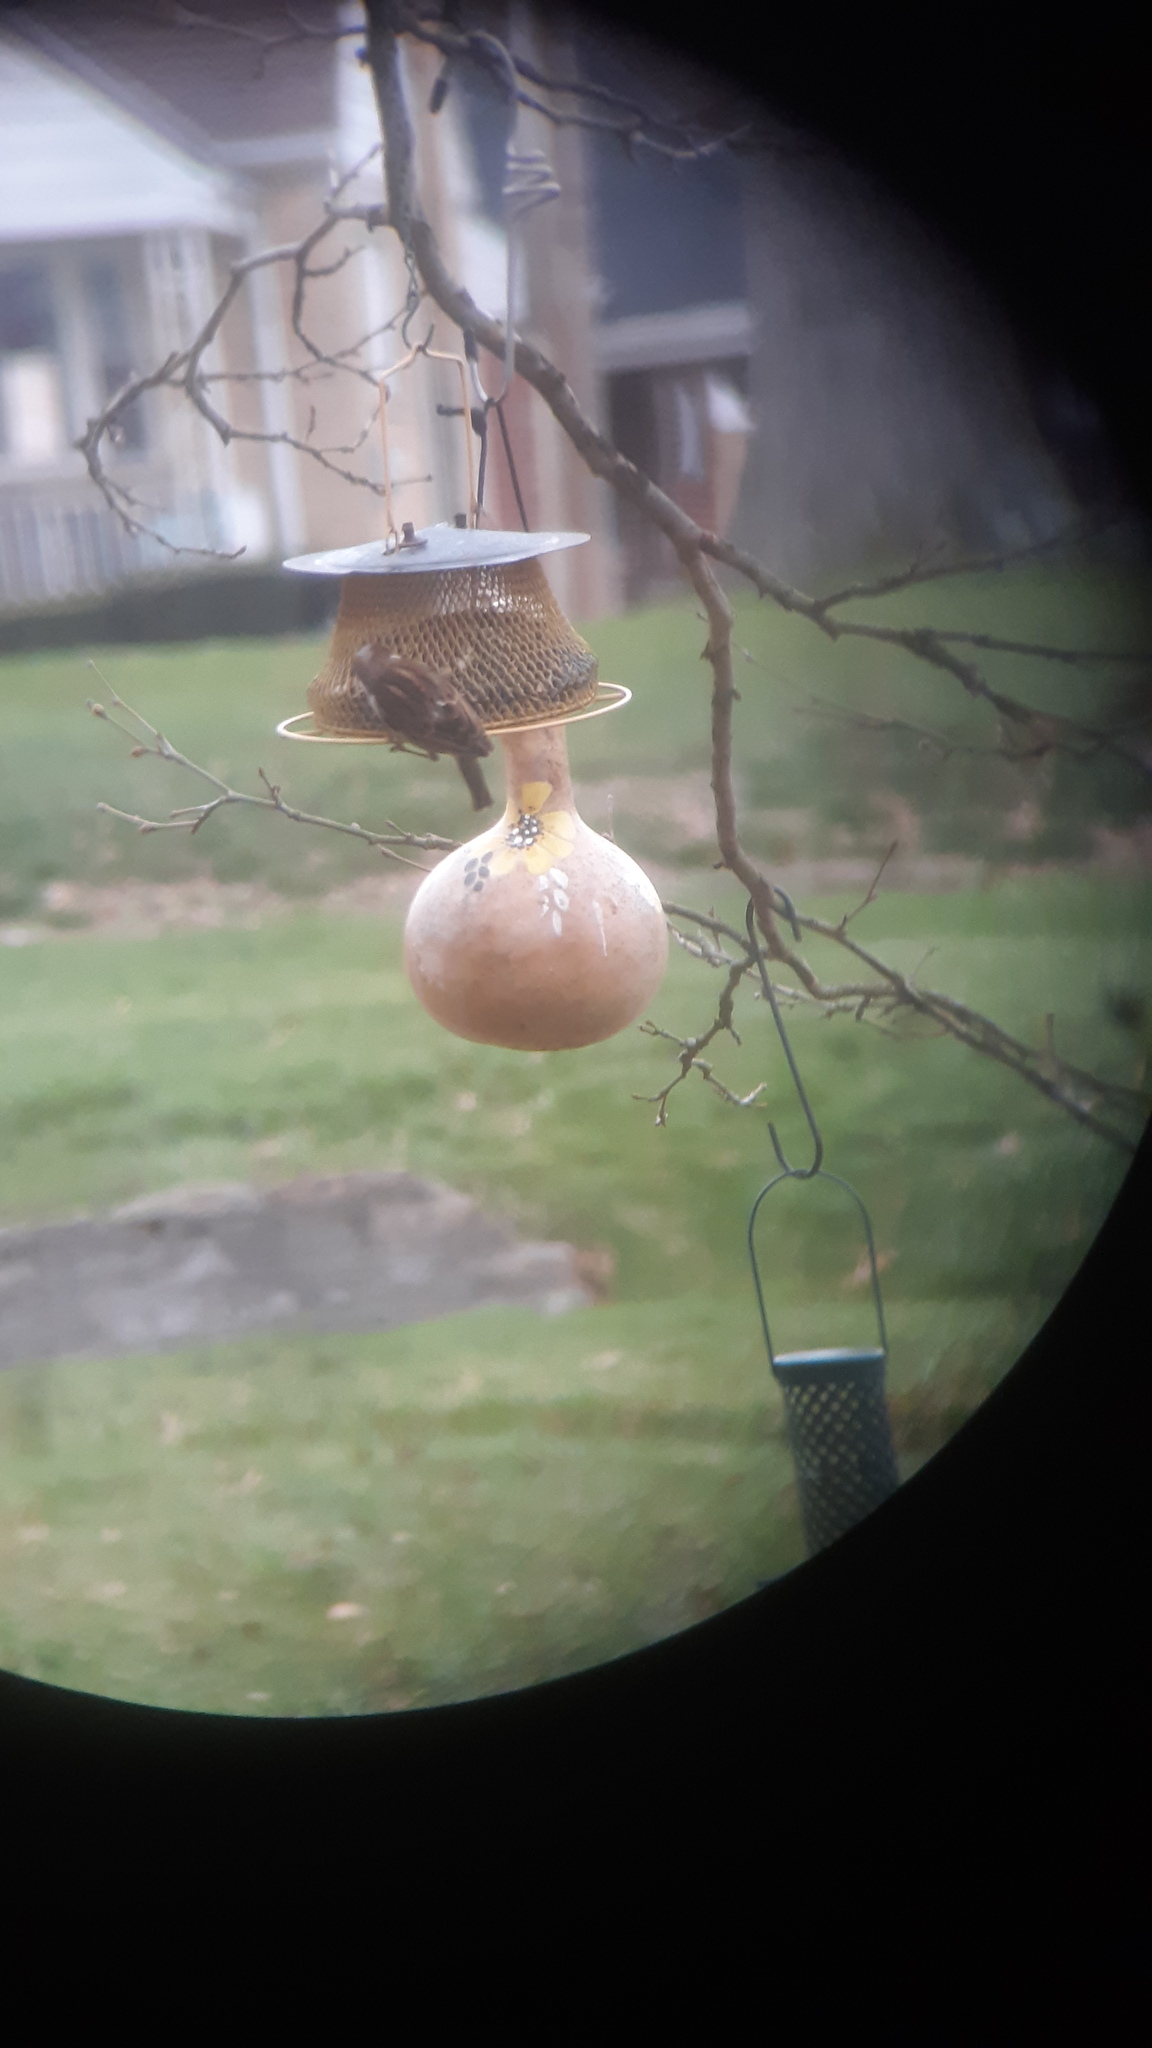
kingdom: Animalia
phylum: Chordata
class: Aves
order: Passeriformes
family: Passeridae
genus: Passer
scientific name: Passer domesticus
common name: House sparrow
